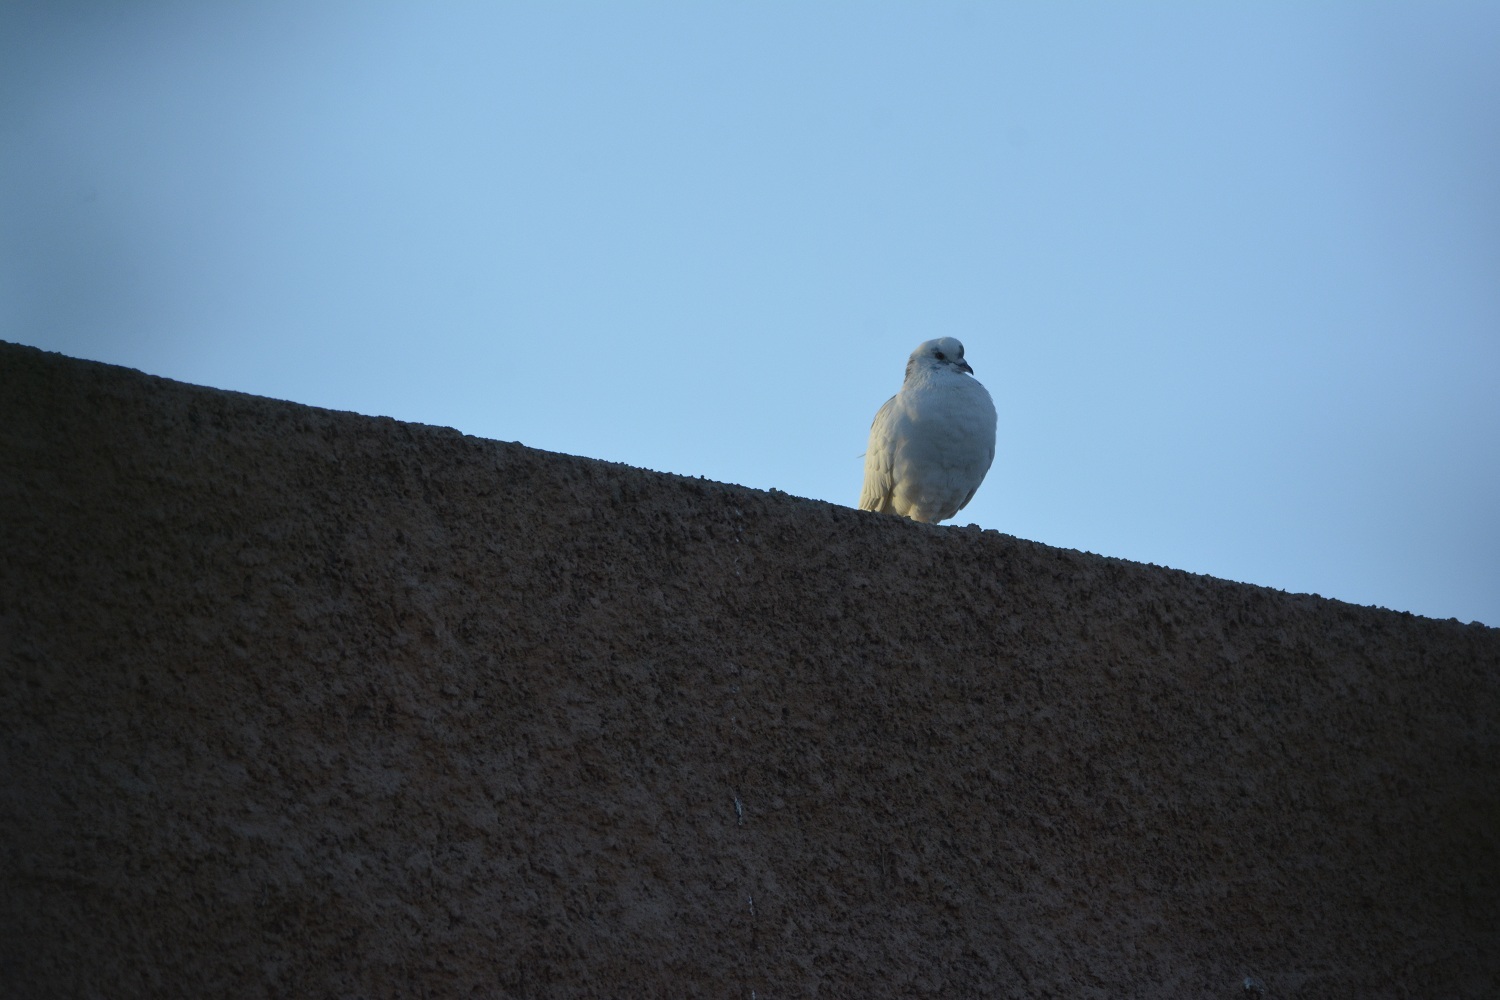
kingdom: Animalia
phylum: Chordata
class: Aves
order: Columbiformes
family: Columbidae
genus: Columba
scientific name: Columba livia
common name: Rock pigeon
